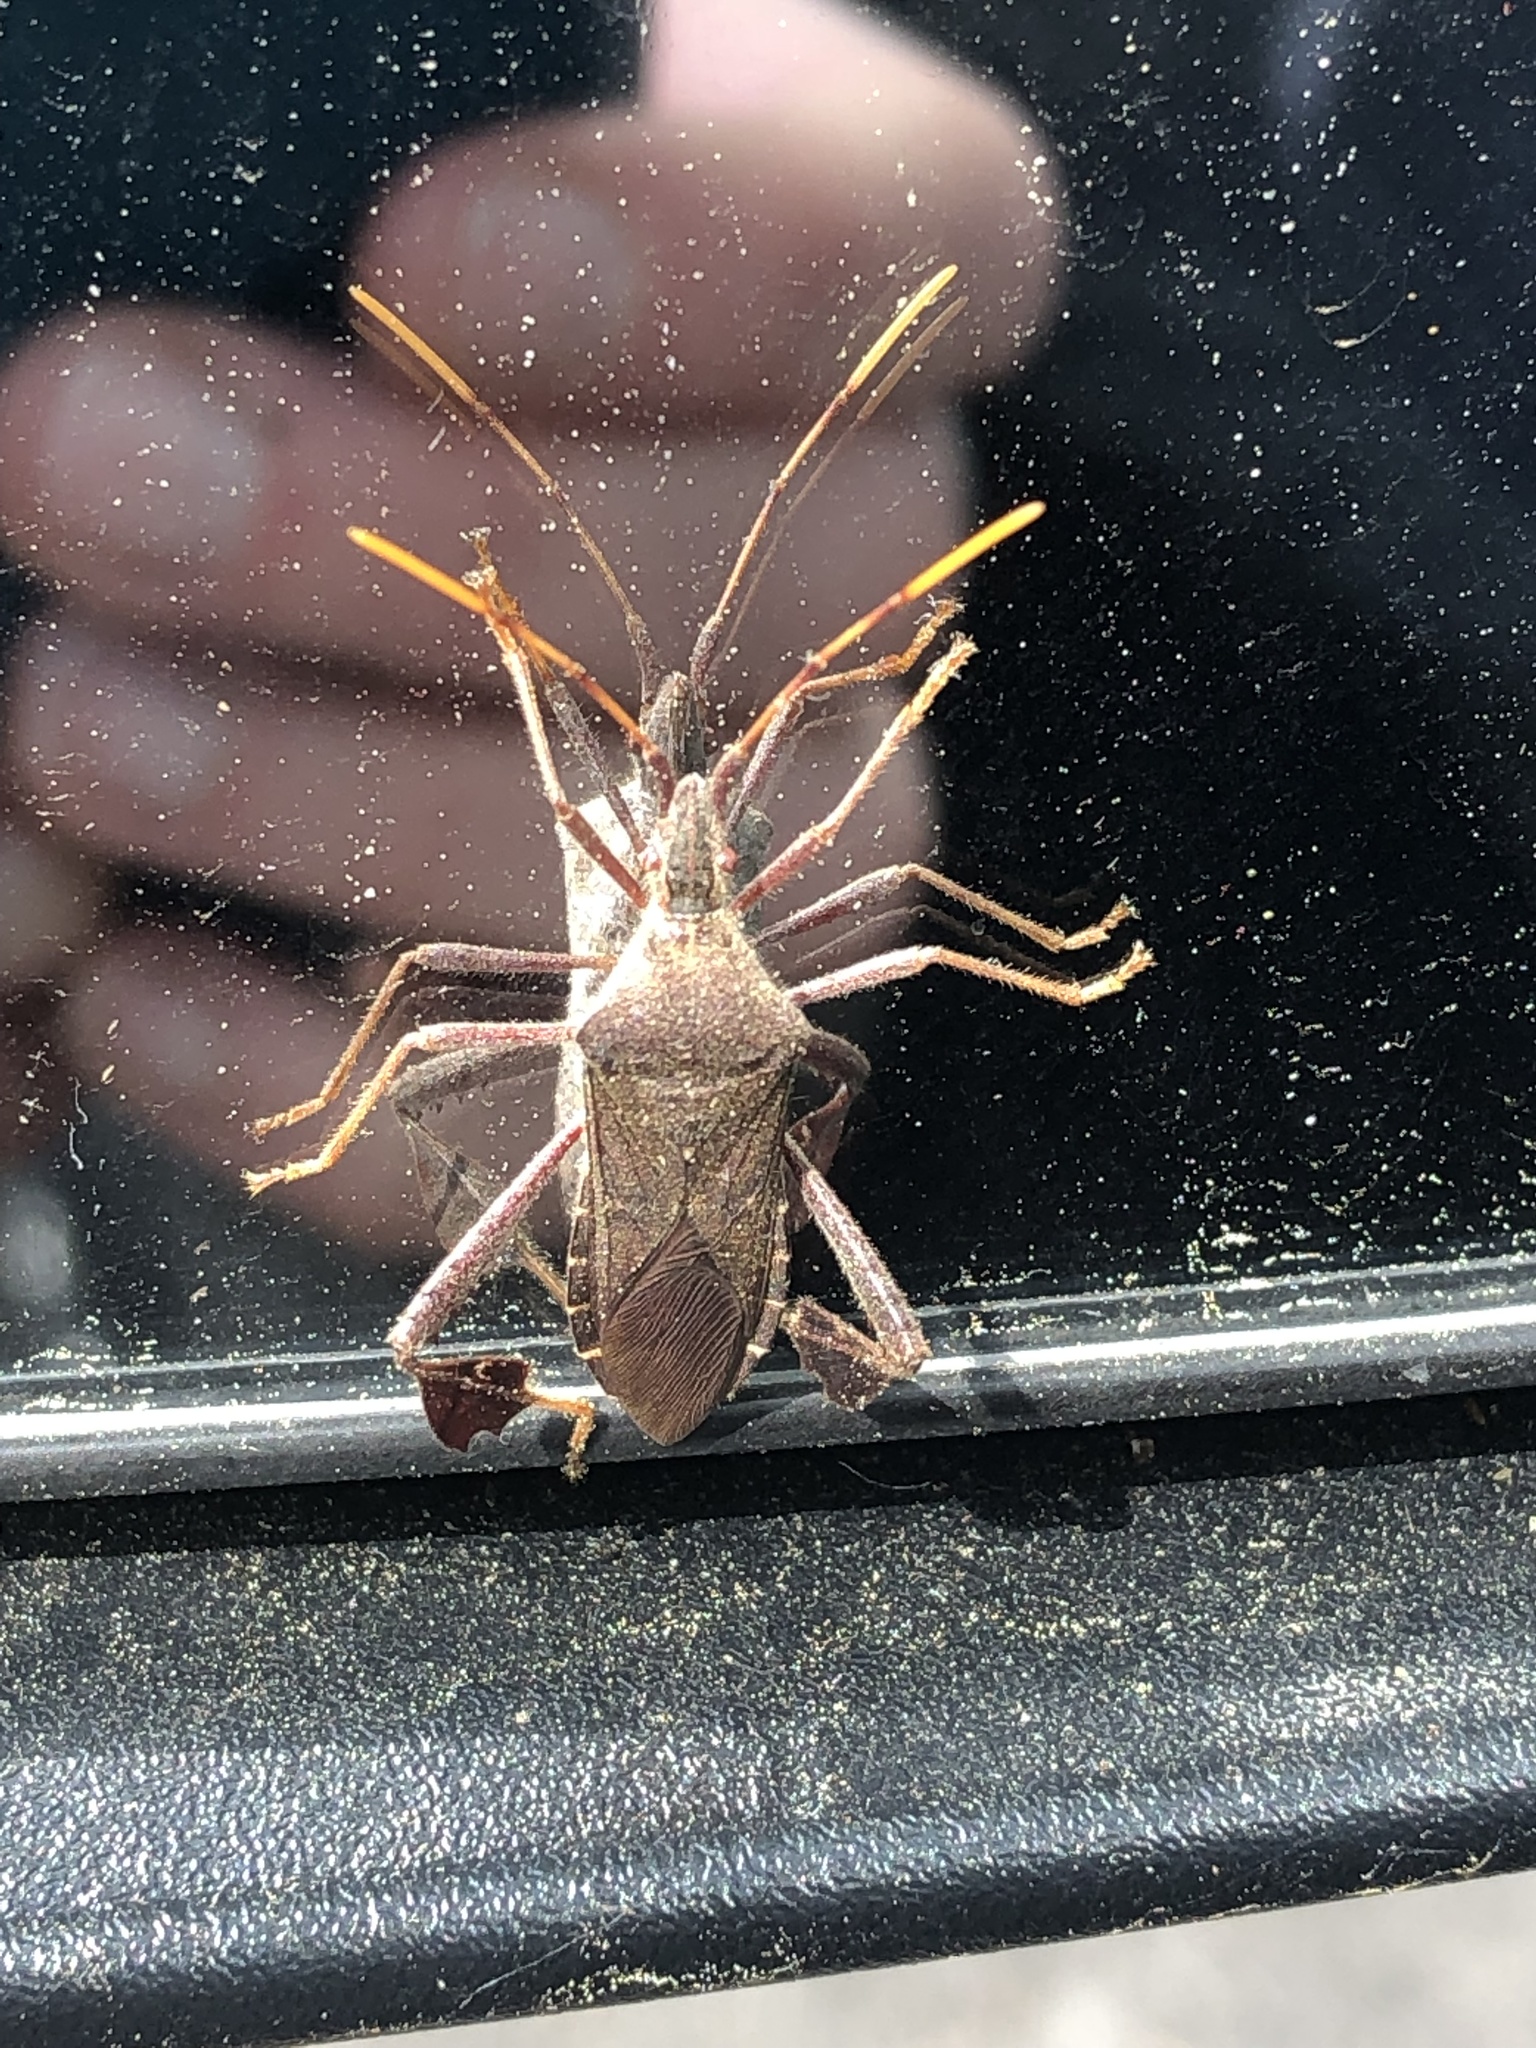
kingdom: Animalia
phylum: Arthropoda
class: Insecta
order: Hemiptera
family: Coreidae
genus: Leptoglossus
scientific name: Leptoglossus oppositus
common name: Northern leaf-footed bug
